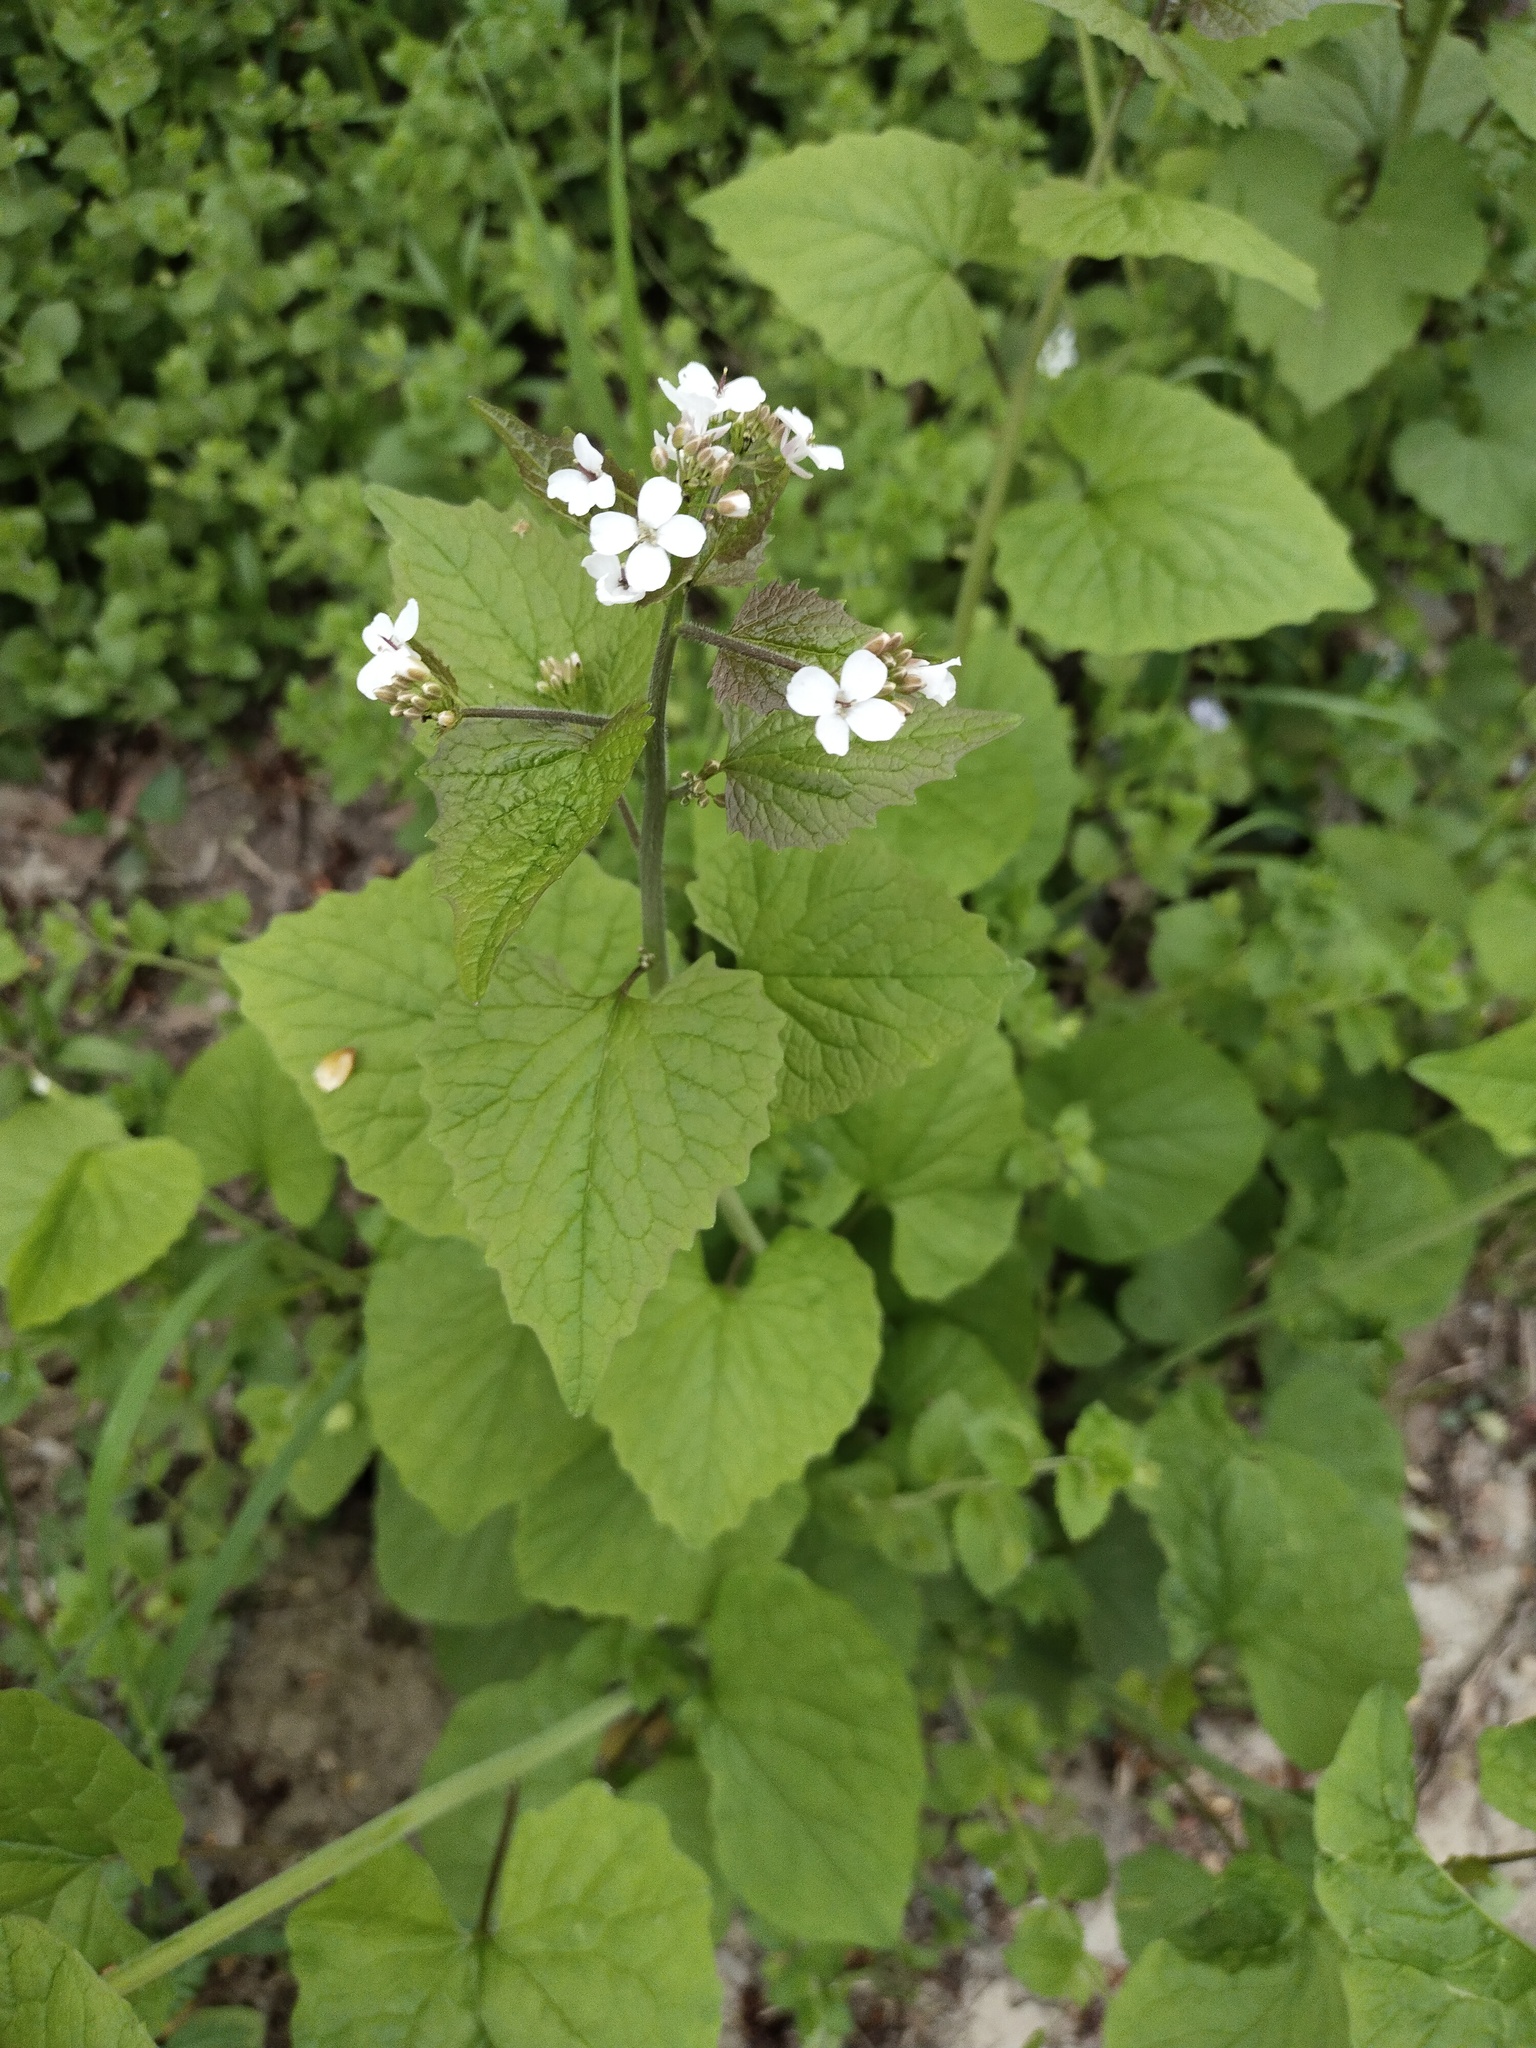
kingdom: Plantae
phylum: Tracheophyta
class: Magnoliopsida
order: Brassicales
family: Brassicaceae
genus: Alliaria
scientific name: Alliaria petiolata
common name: Garlic mustard
